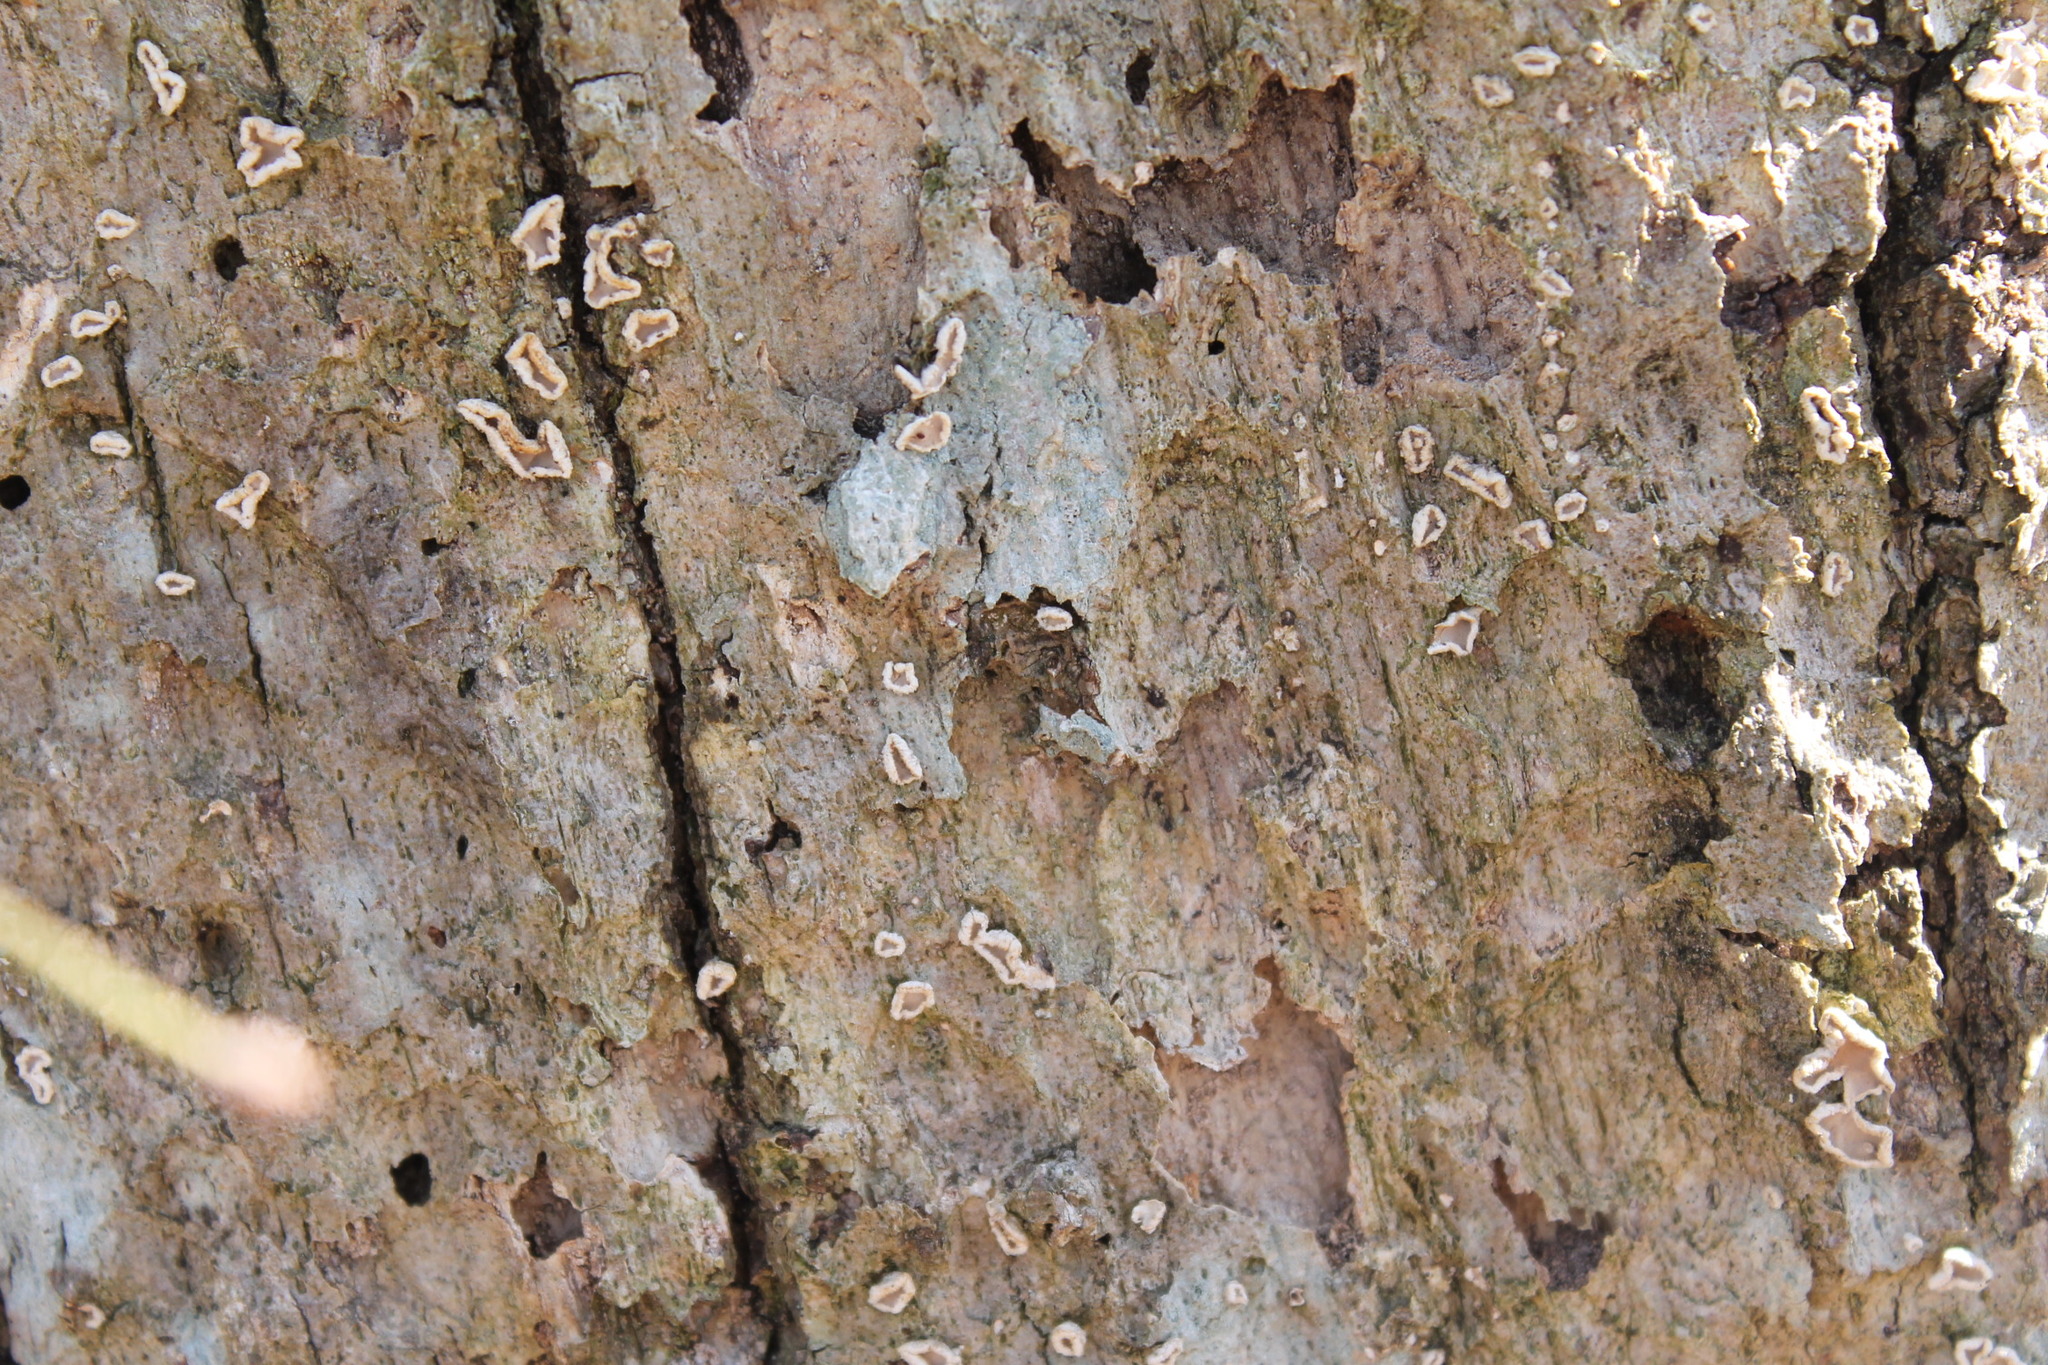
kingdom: Fungi
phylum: Basidiomycota
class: Agaricomycetes
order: Russulales
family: Stereaceae
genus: Acanthophysium
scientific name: Acanthophysium oakesii
